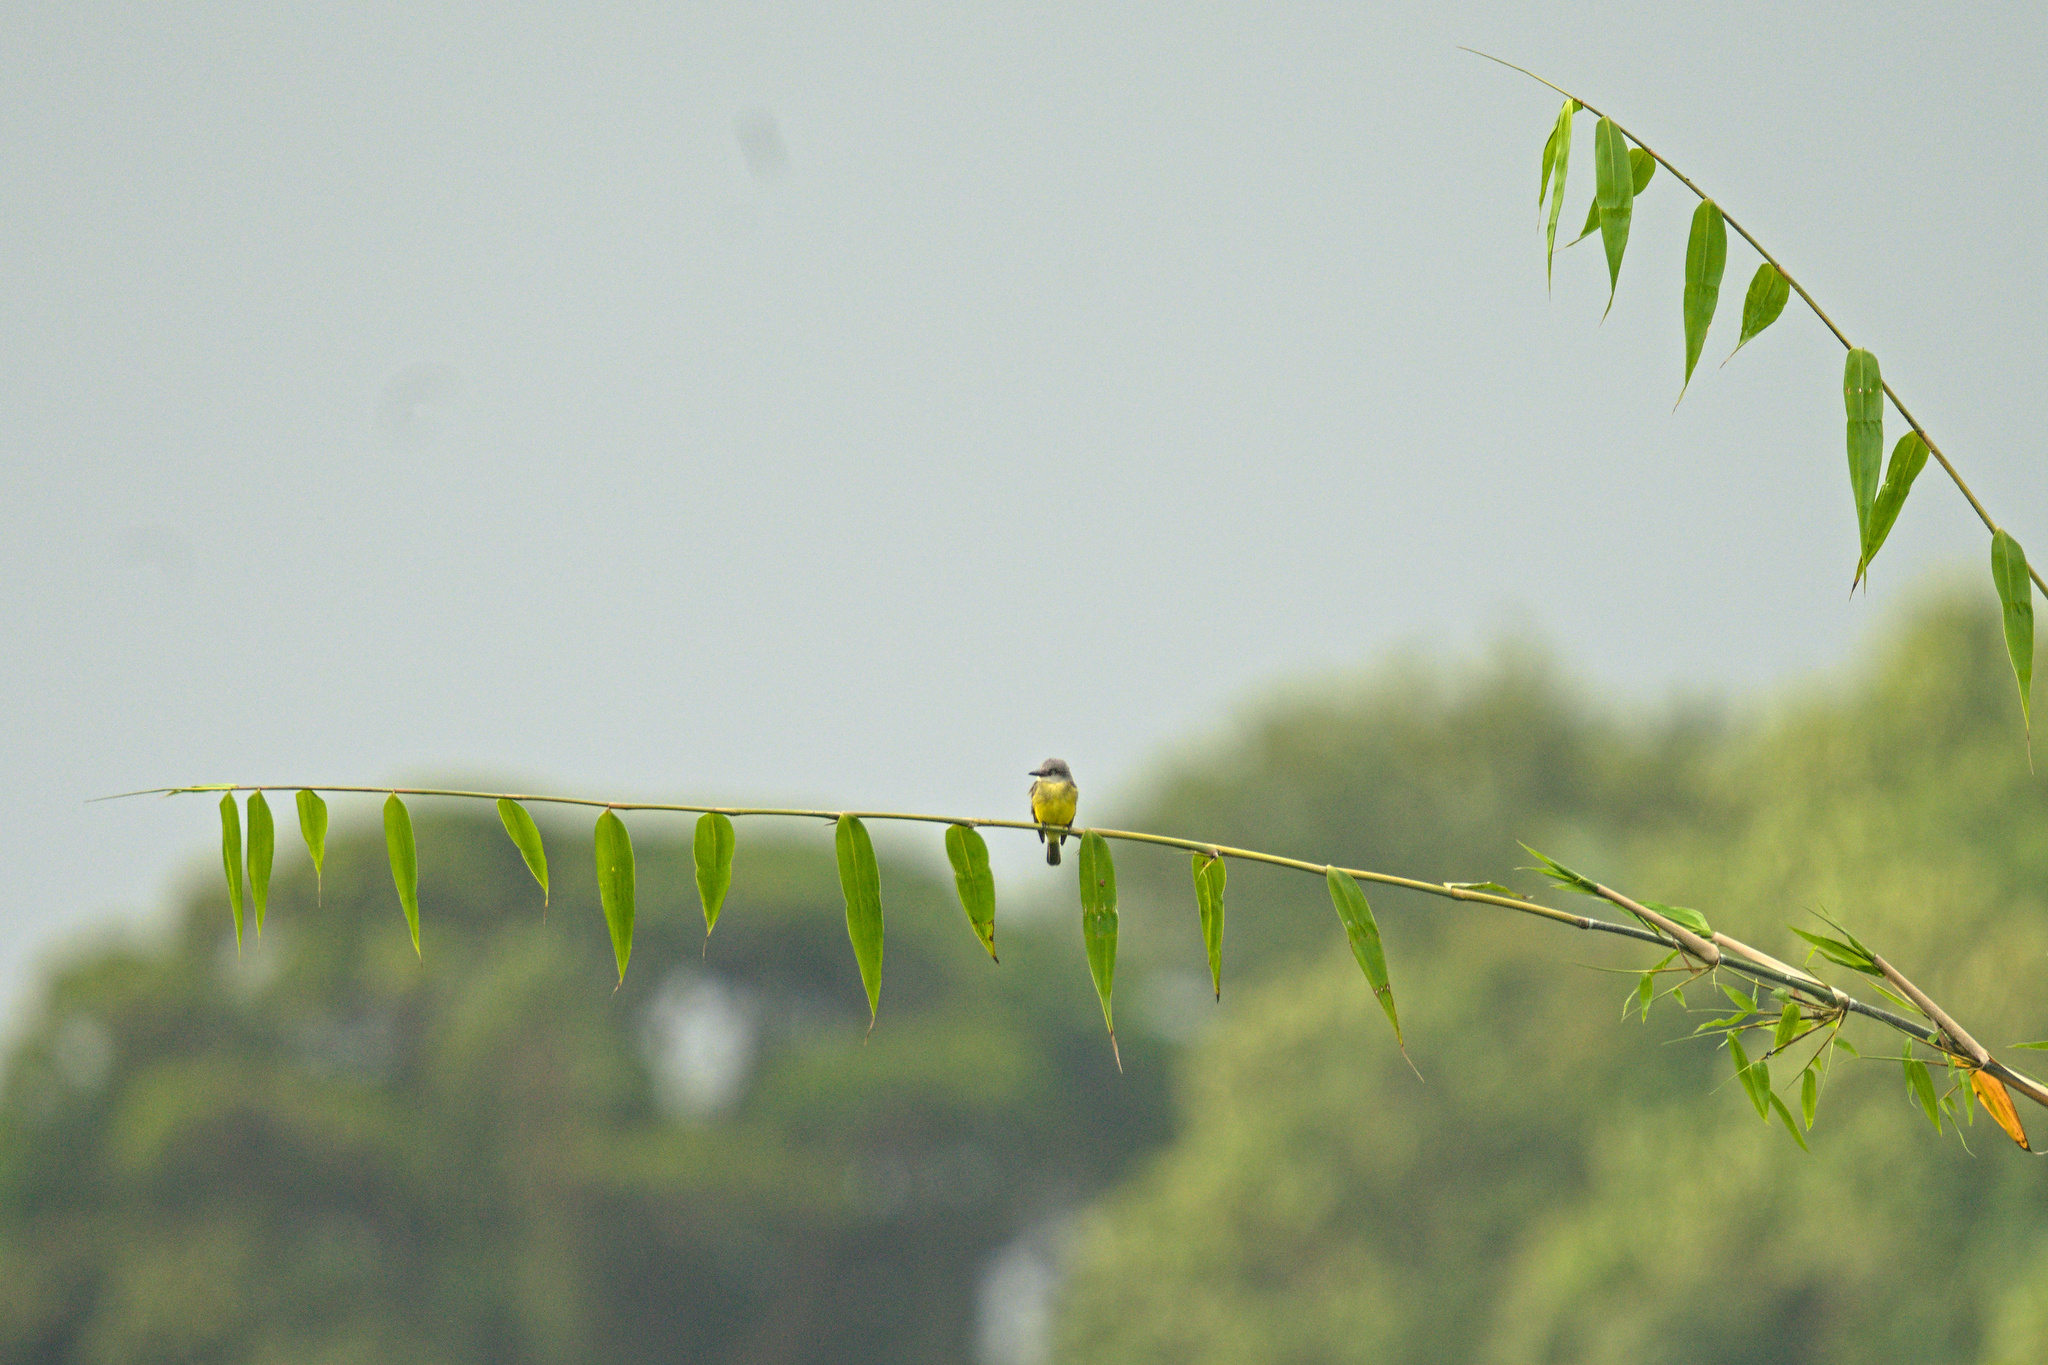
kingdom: Animalia
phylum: Chordata
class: Aves
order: Passeriformes
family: Tyrannidae
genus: Tyrannus
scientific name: Tyrannus melancholicus
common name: Tropical kingbird
